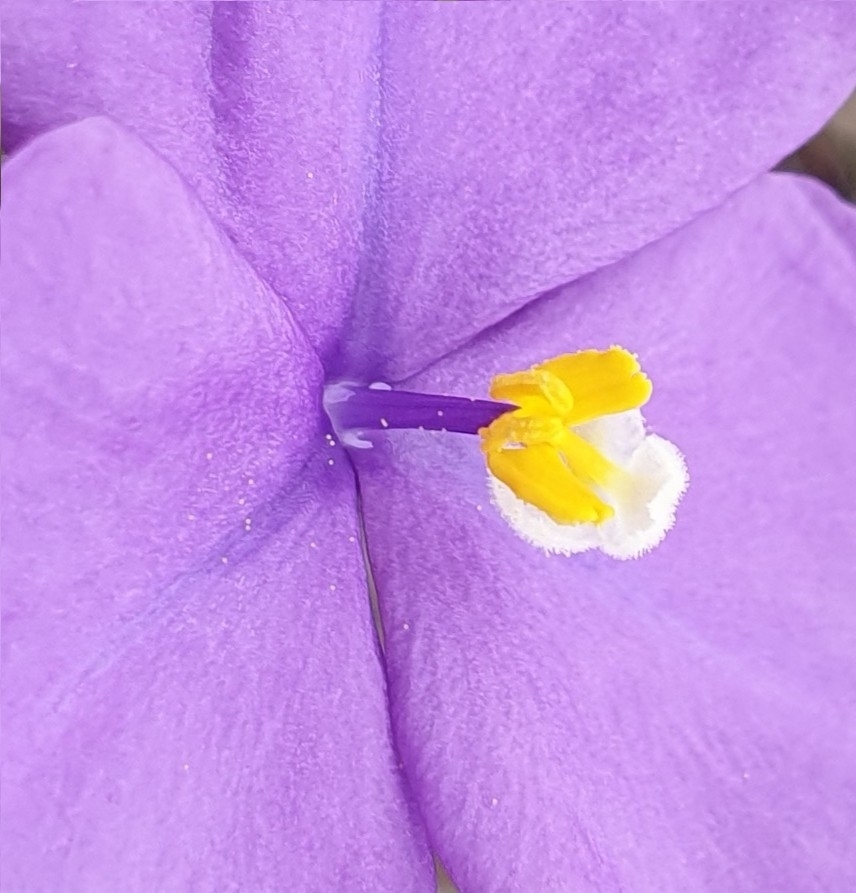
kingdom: Plantae
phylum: Tracheophyta
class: Liliopsida
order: Asparagales
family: Iridaceae
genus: Patersonia
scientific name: Patersonia sericea
